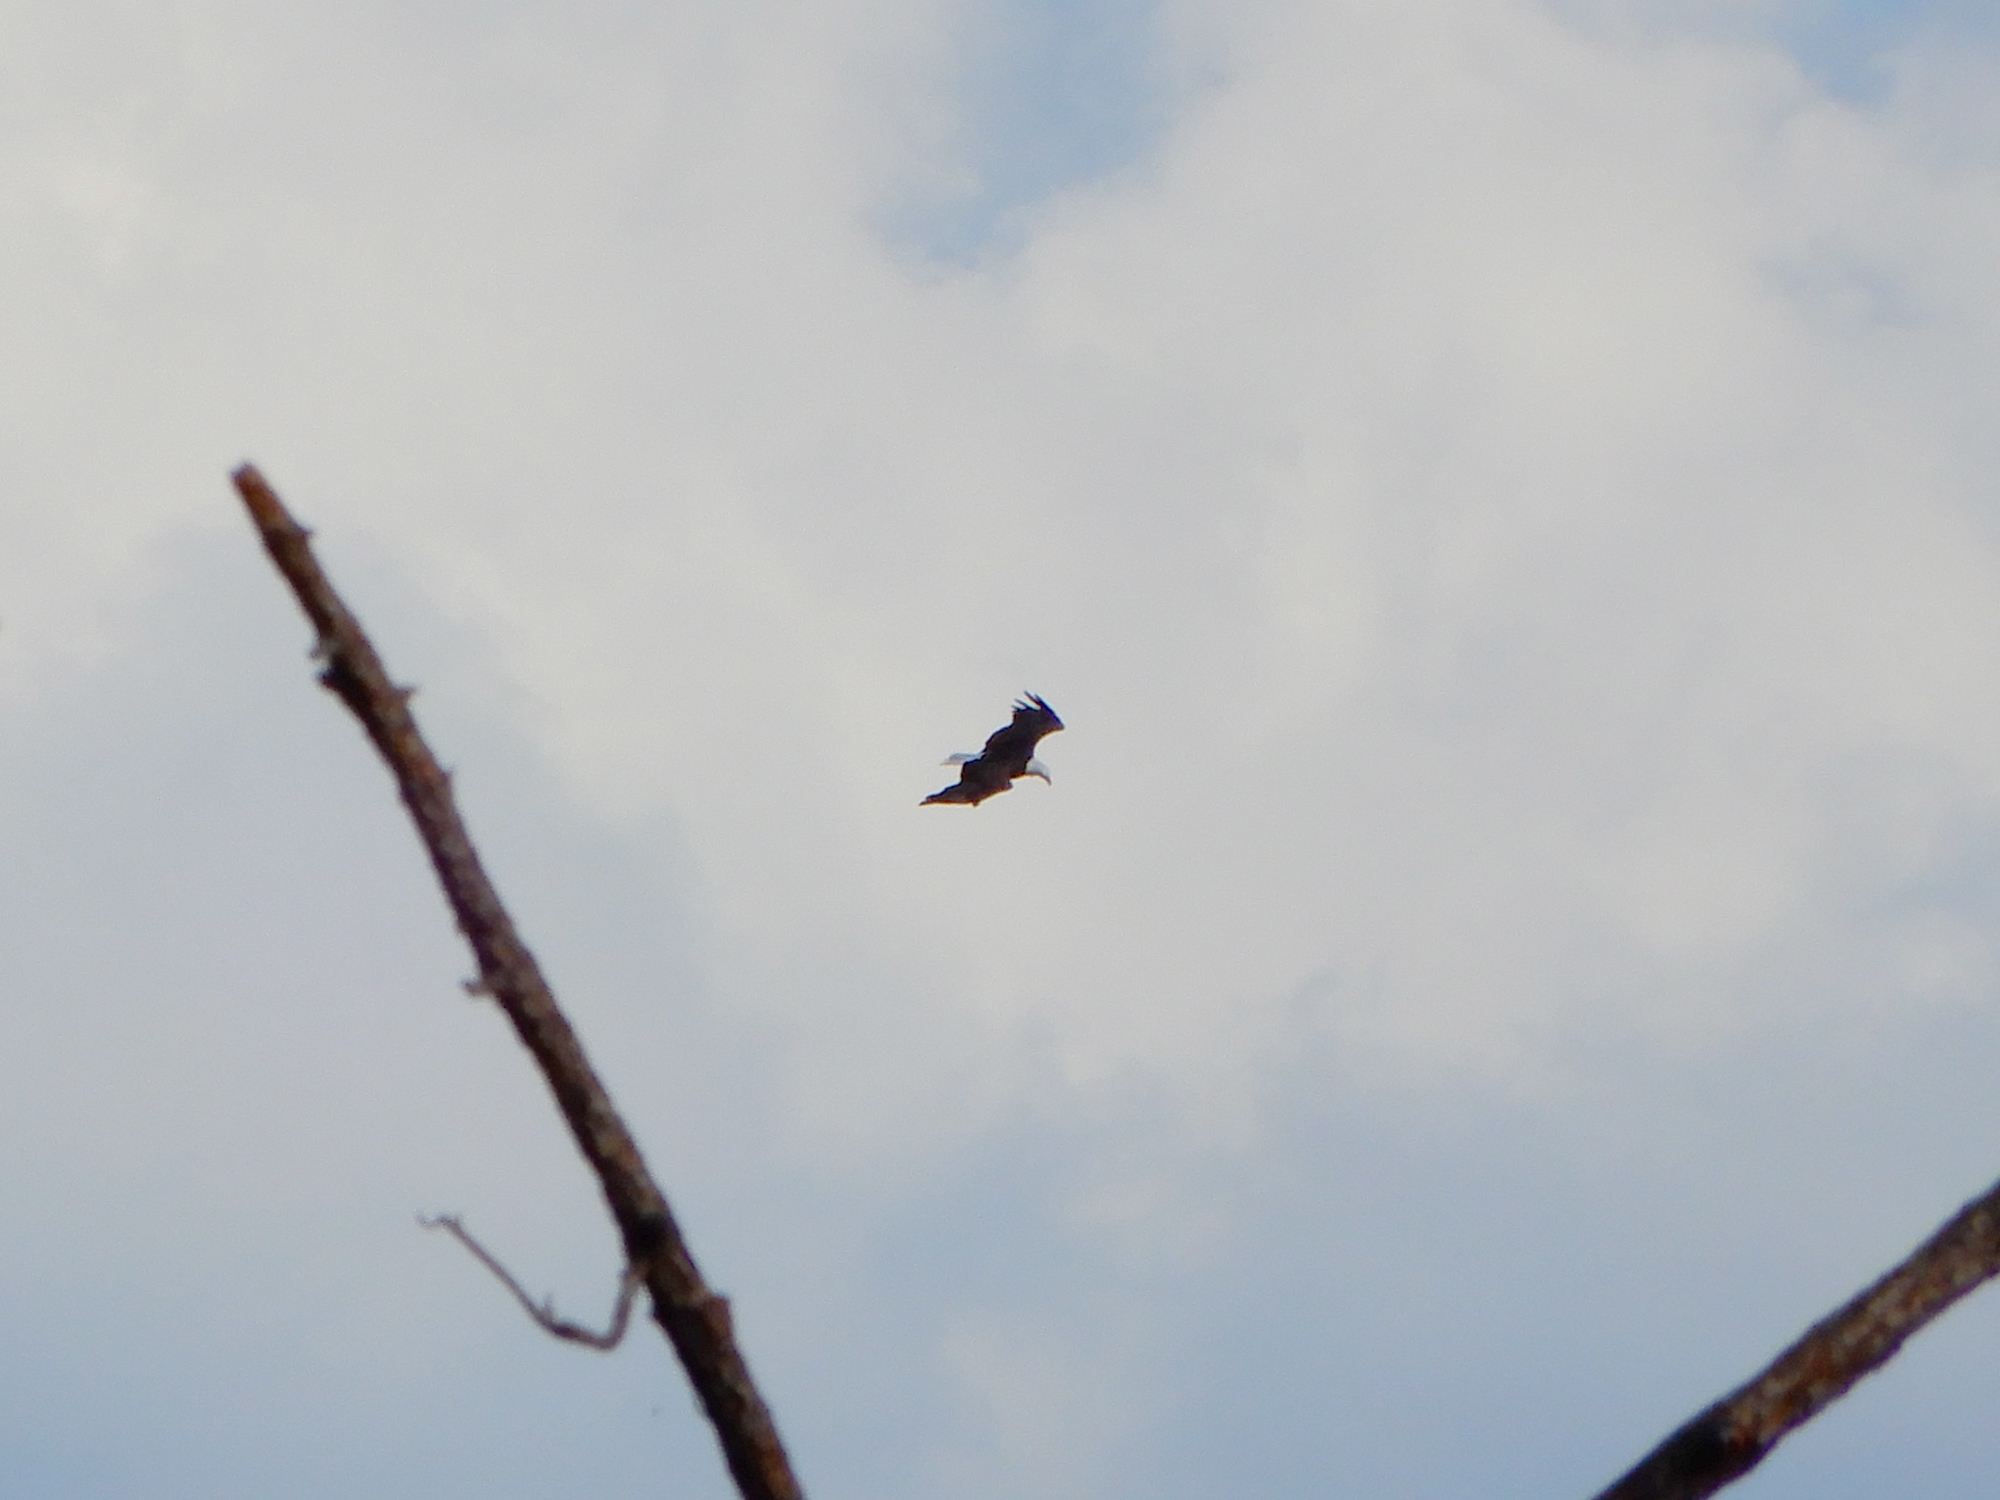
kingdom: Animalia
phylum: Chordata
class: Aves
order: Accipitriformes
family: Accipitridae
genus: Haliaeetus
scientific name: Haliaeetus leucocephalus
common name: Bald eagle
